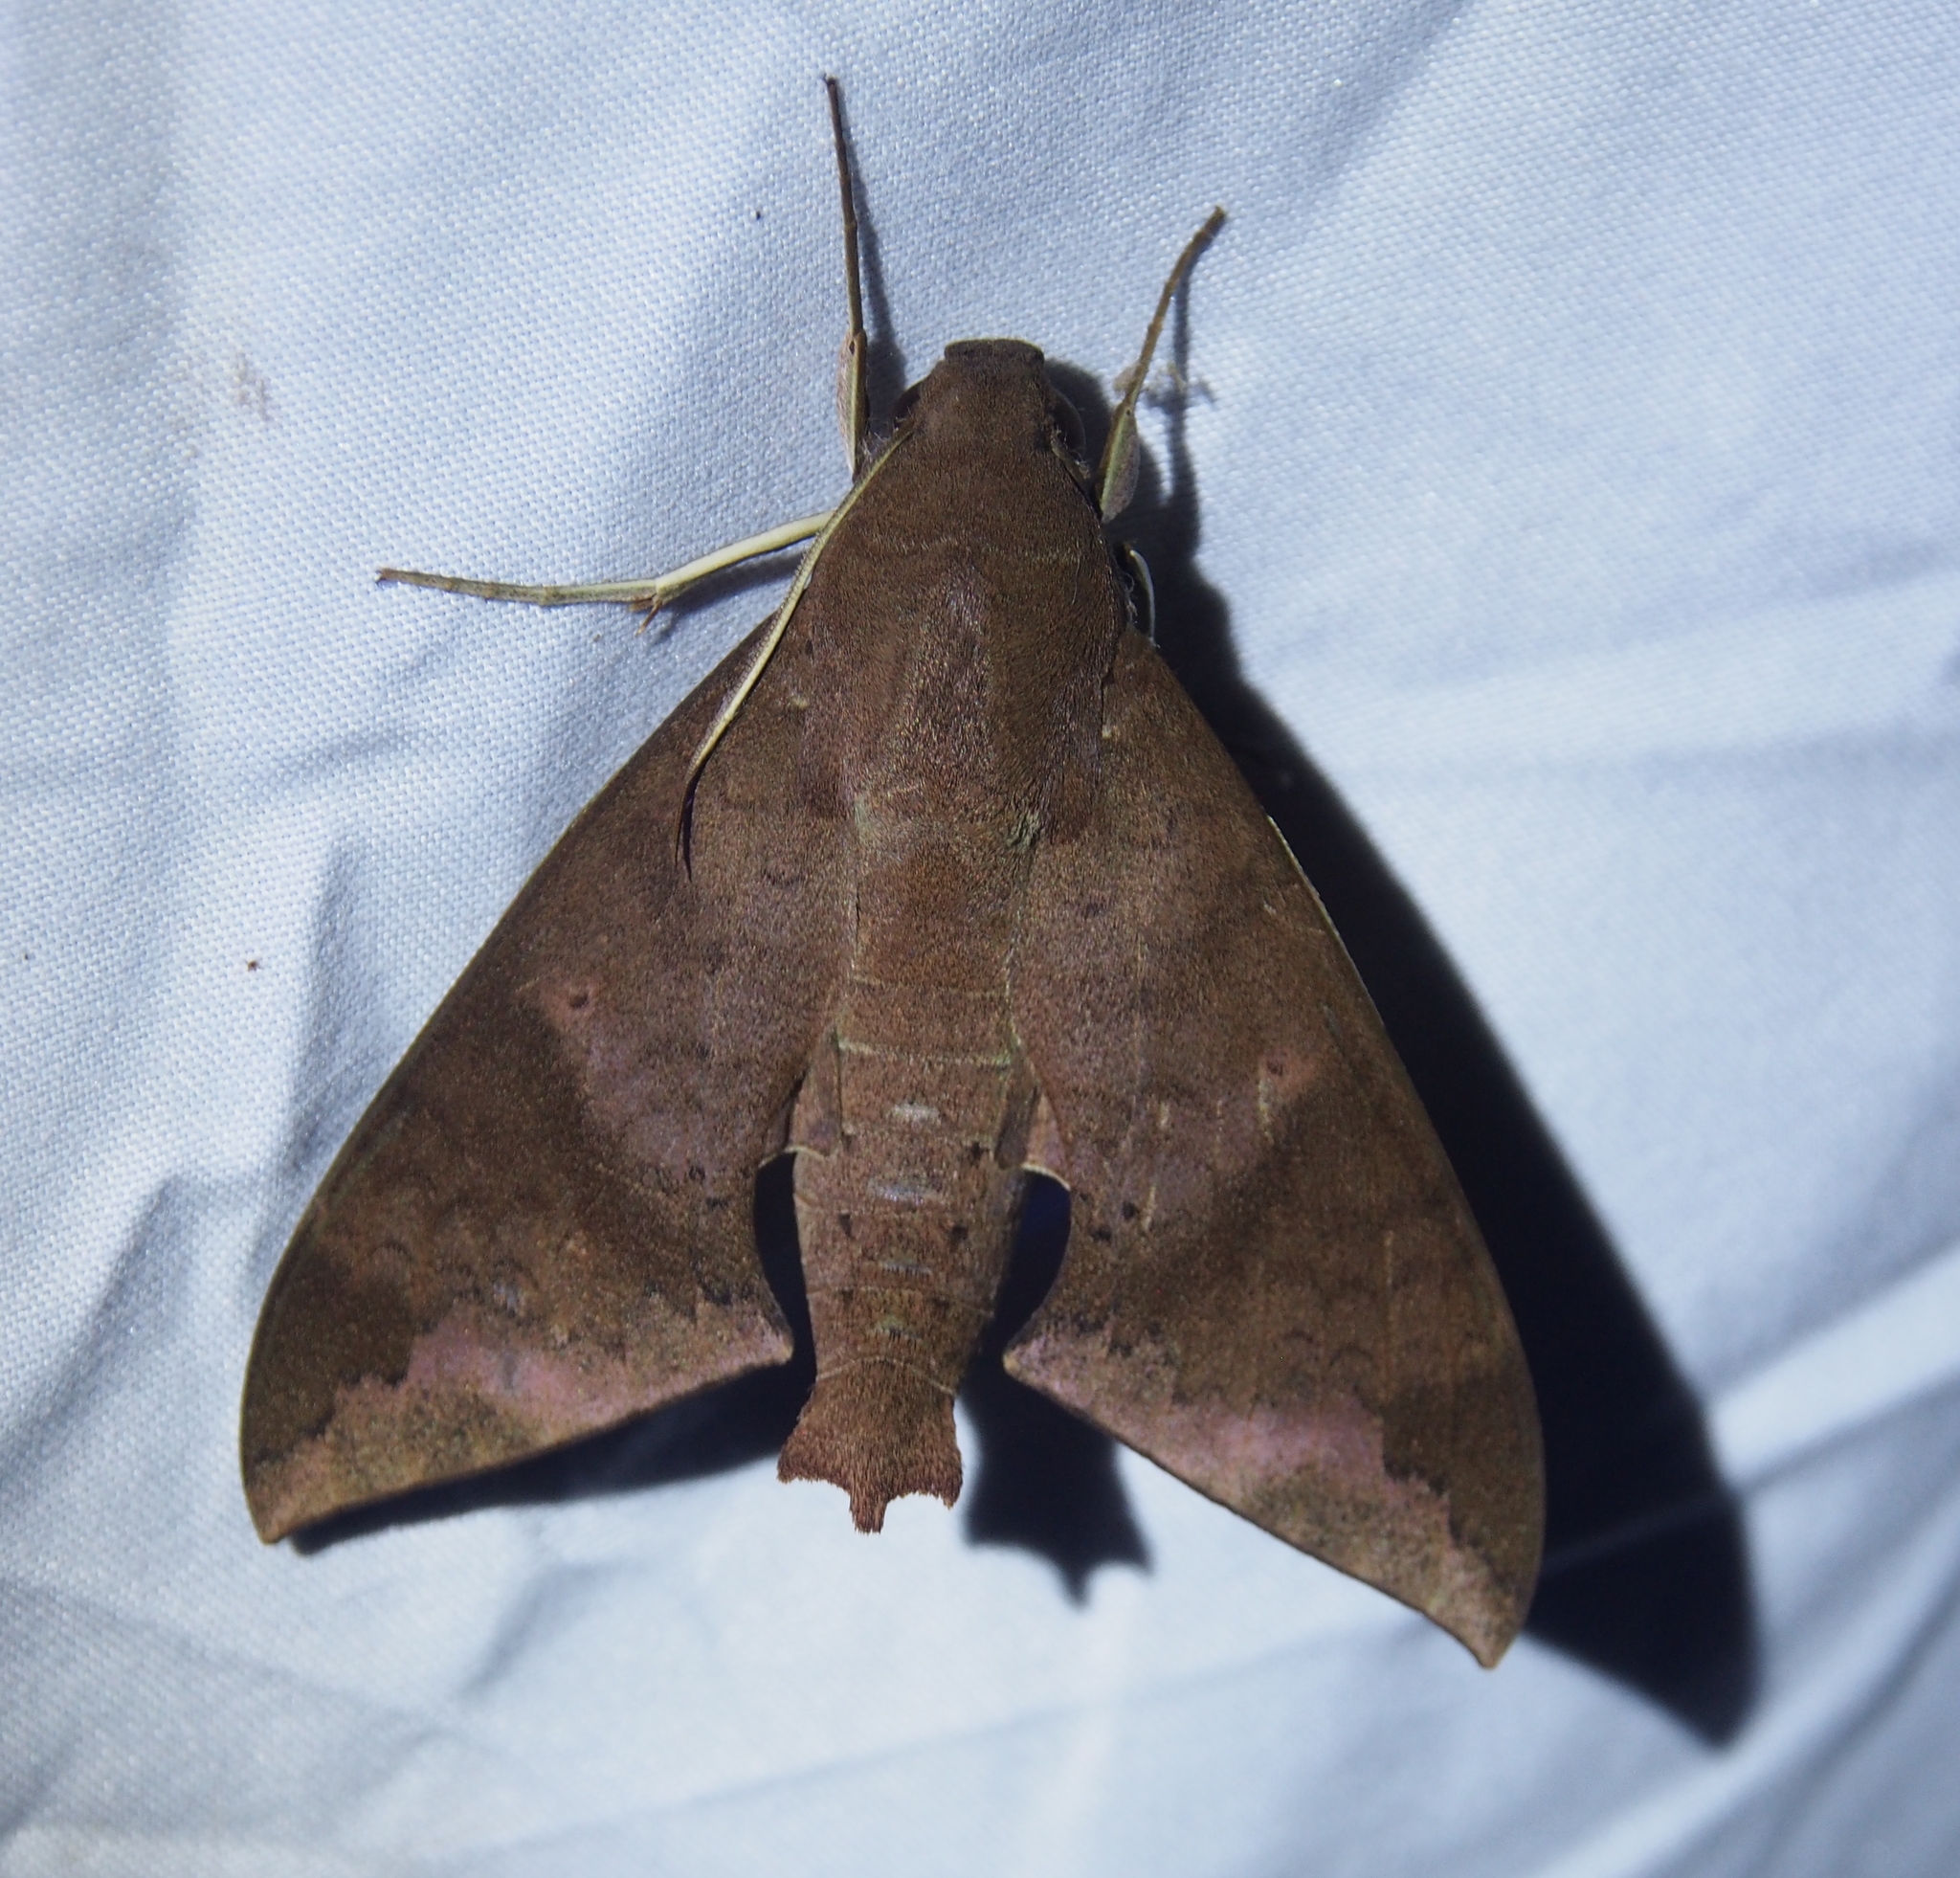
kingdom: Animalia
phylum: Arthropoda
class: Insecta
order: Lepidoptera
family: Sphingidae
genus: Pachylioides
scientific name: Pachylioides resumens
